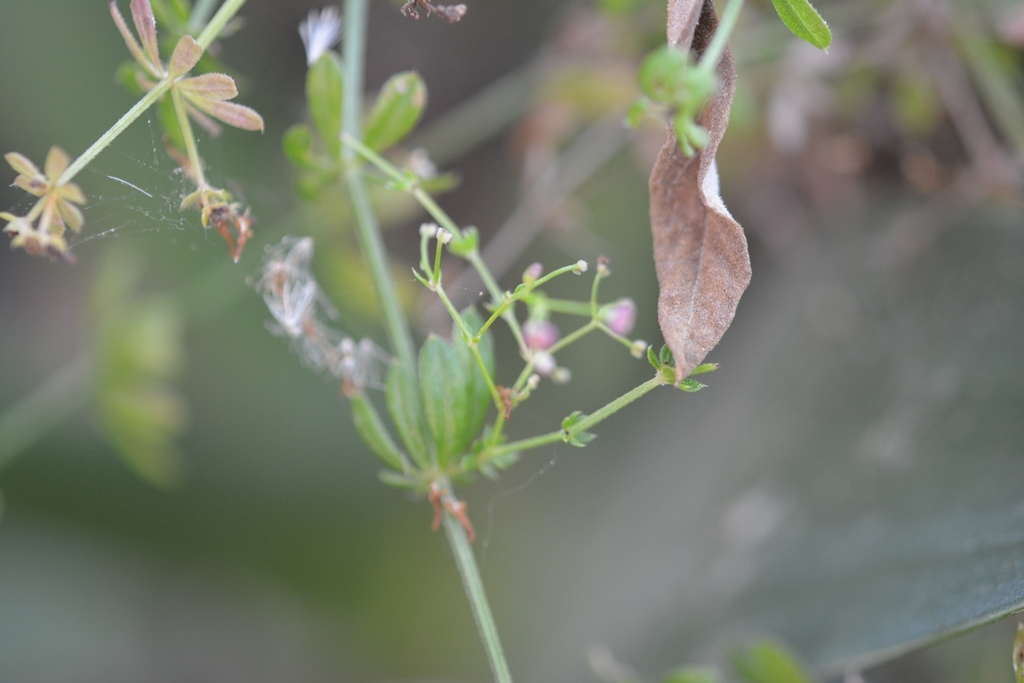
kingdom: Plantae
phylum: Tracheophyta
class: Magnoliopsida
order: Gentianales
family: Rubiaceae
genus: Galium
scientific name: Galium mexicanum
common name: Mexican bedstraw
